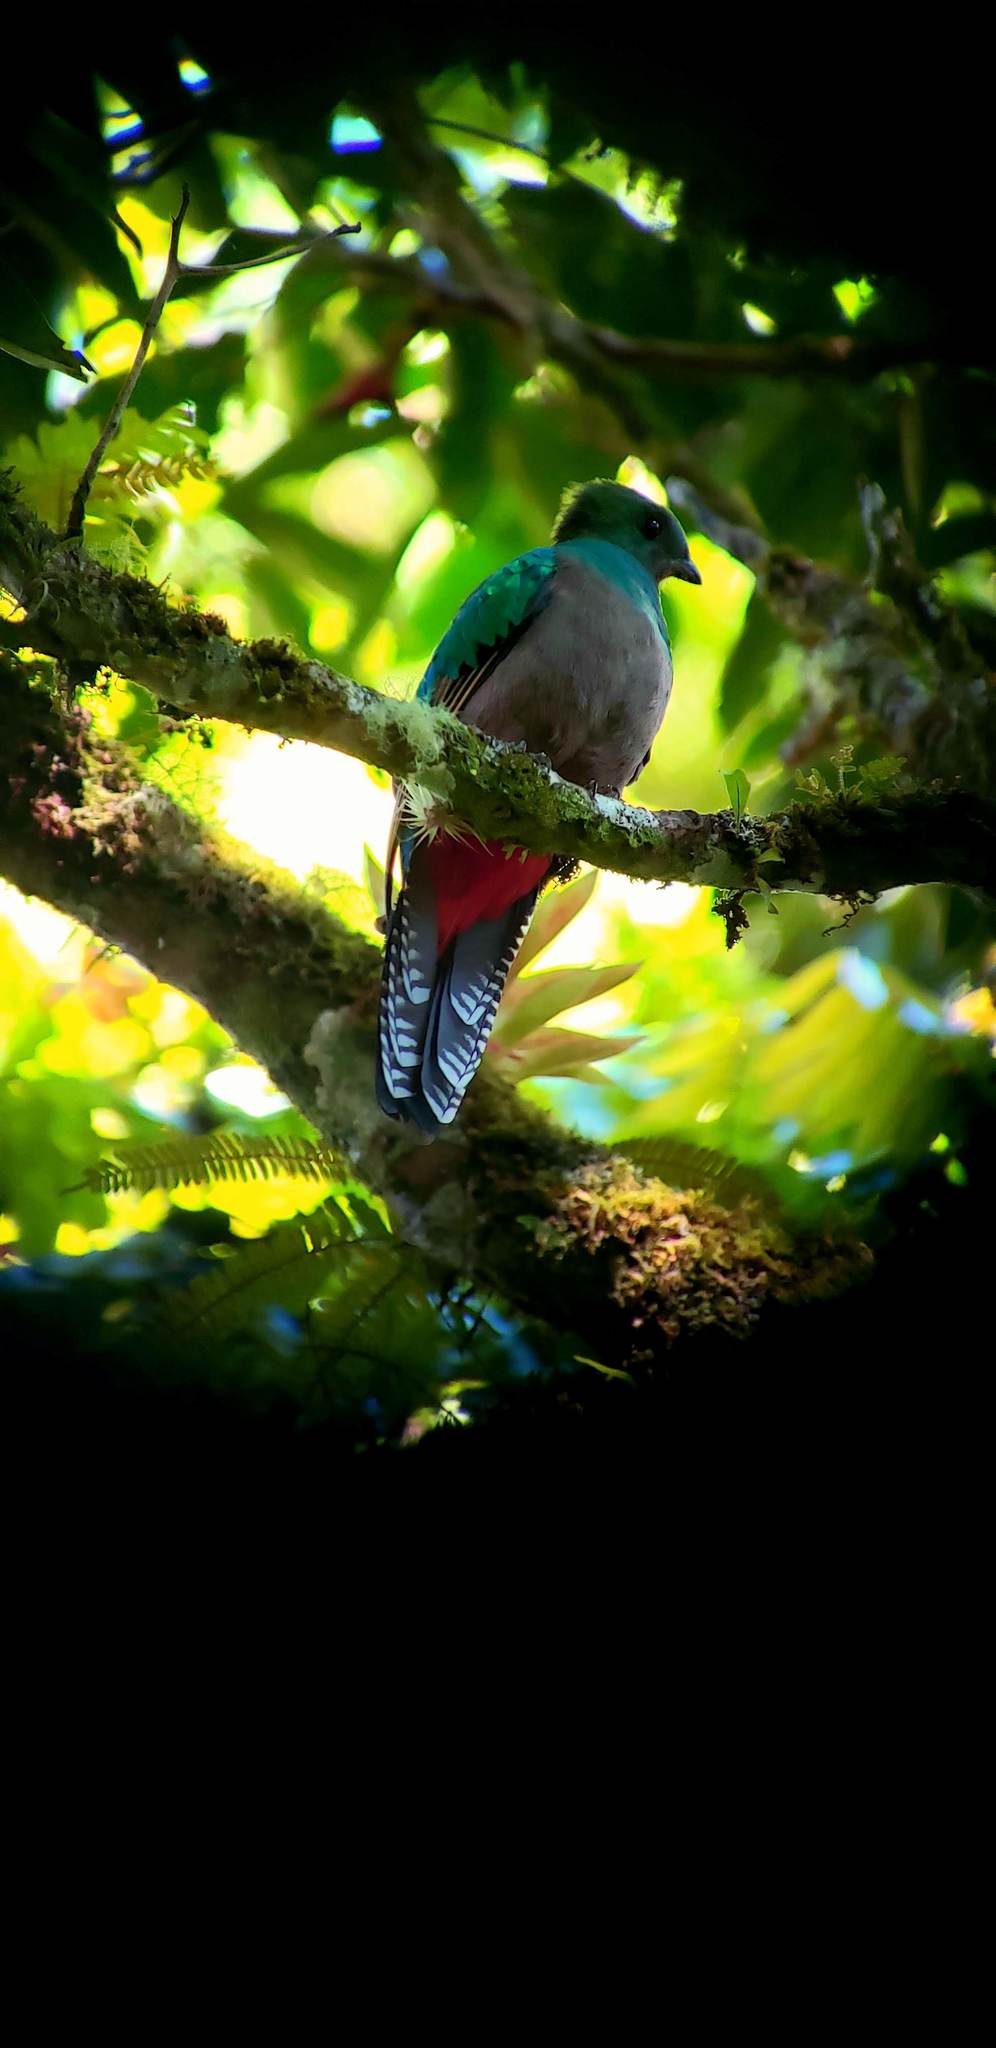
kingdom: Animalia
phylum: Chordata
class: Aves
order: Trogoniformes
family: Trogonidae
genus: Pharomachrus
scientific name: Pharomachrus mocinno
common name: Resplendent quetzal
